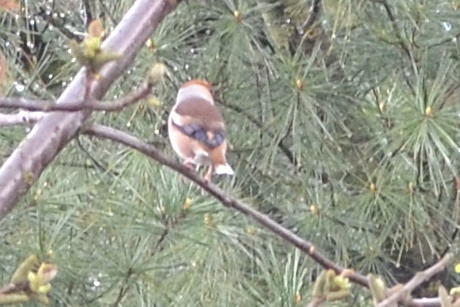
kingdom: Animalia
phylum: Chordata
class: Aves
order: Passeriformes
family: Fringillidae
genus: Coccothraustes
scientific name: Coccothraustes coccothraustes
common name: Hawfinch
